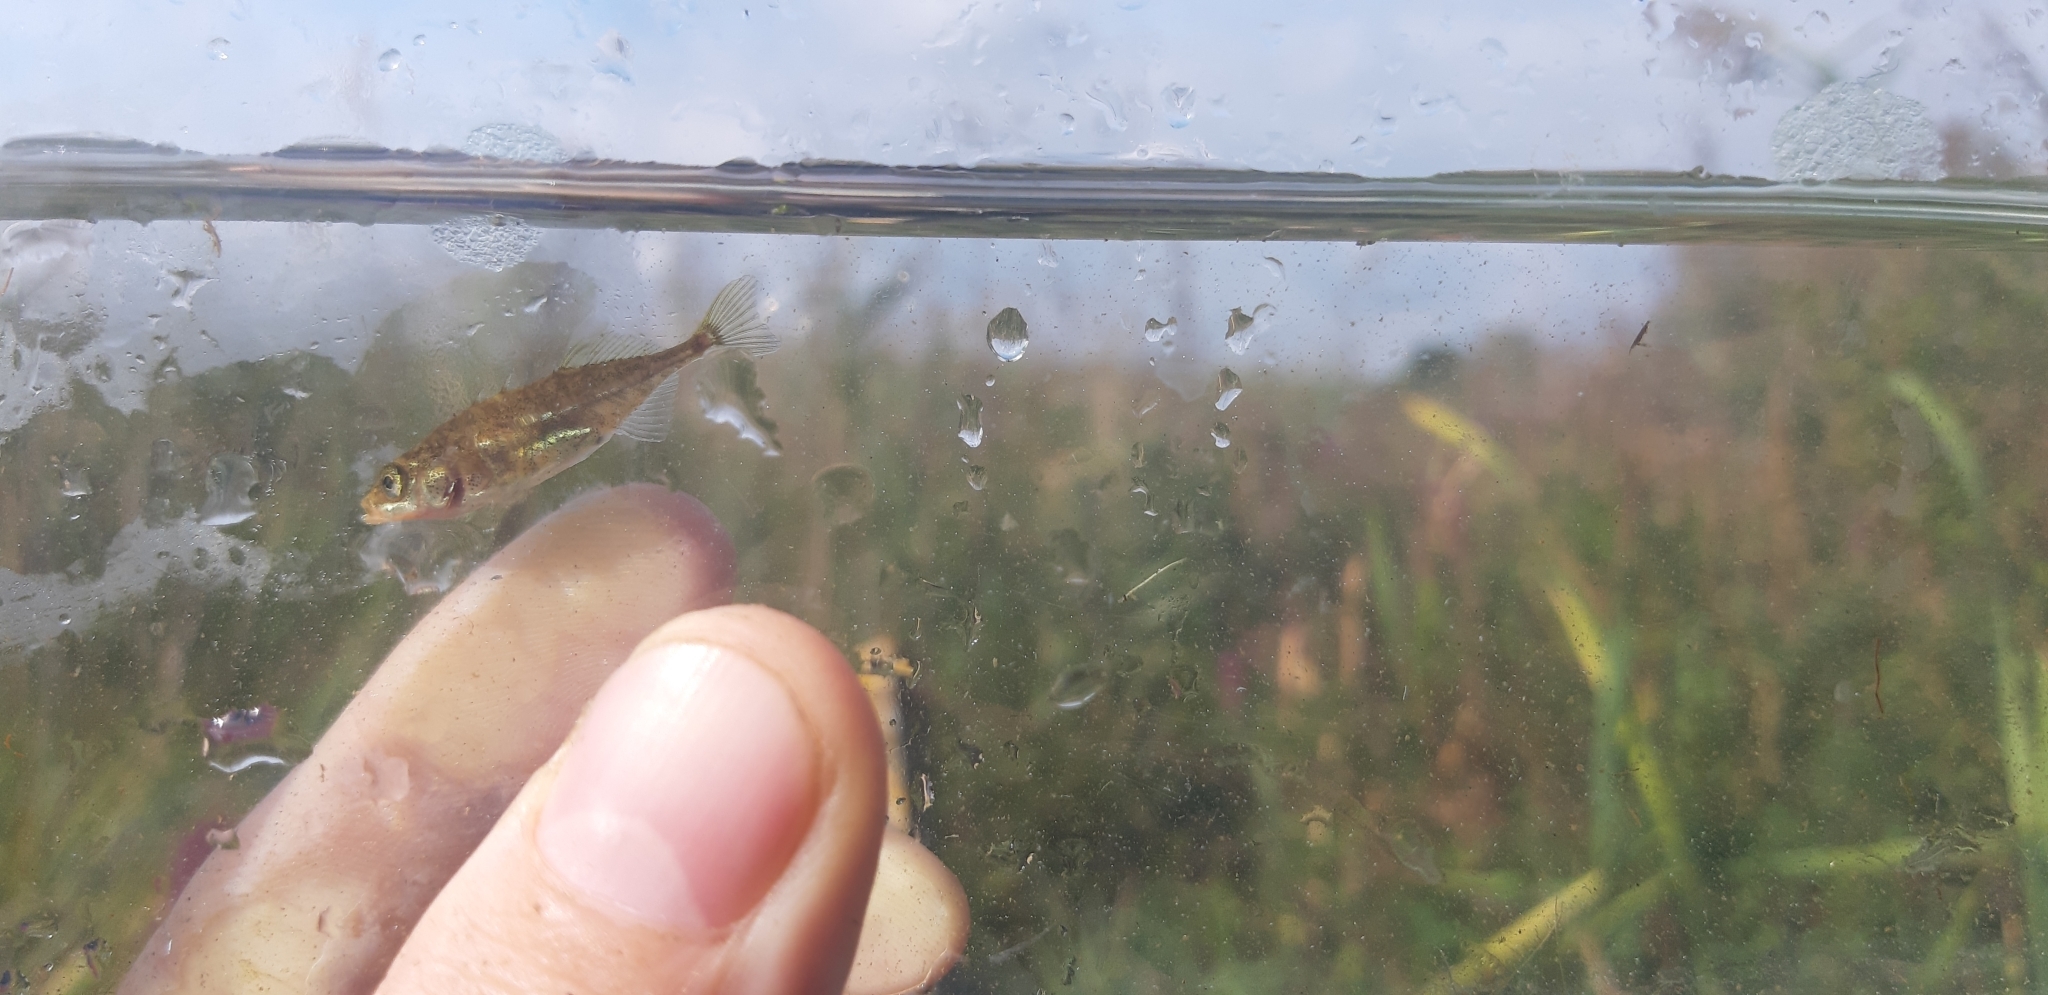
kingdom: Animalia
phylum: Chordata
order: Gasterosteiformes
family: Gasterosteidae
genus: Gasterosteus
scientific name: Gasterosteus aculeatus
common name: Three-spined stickleback
